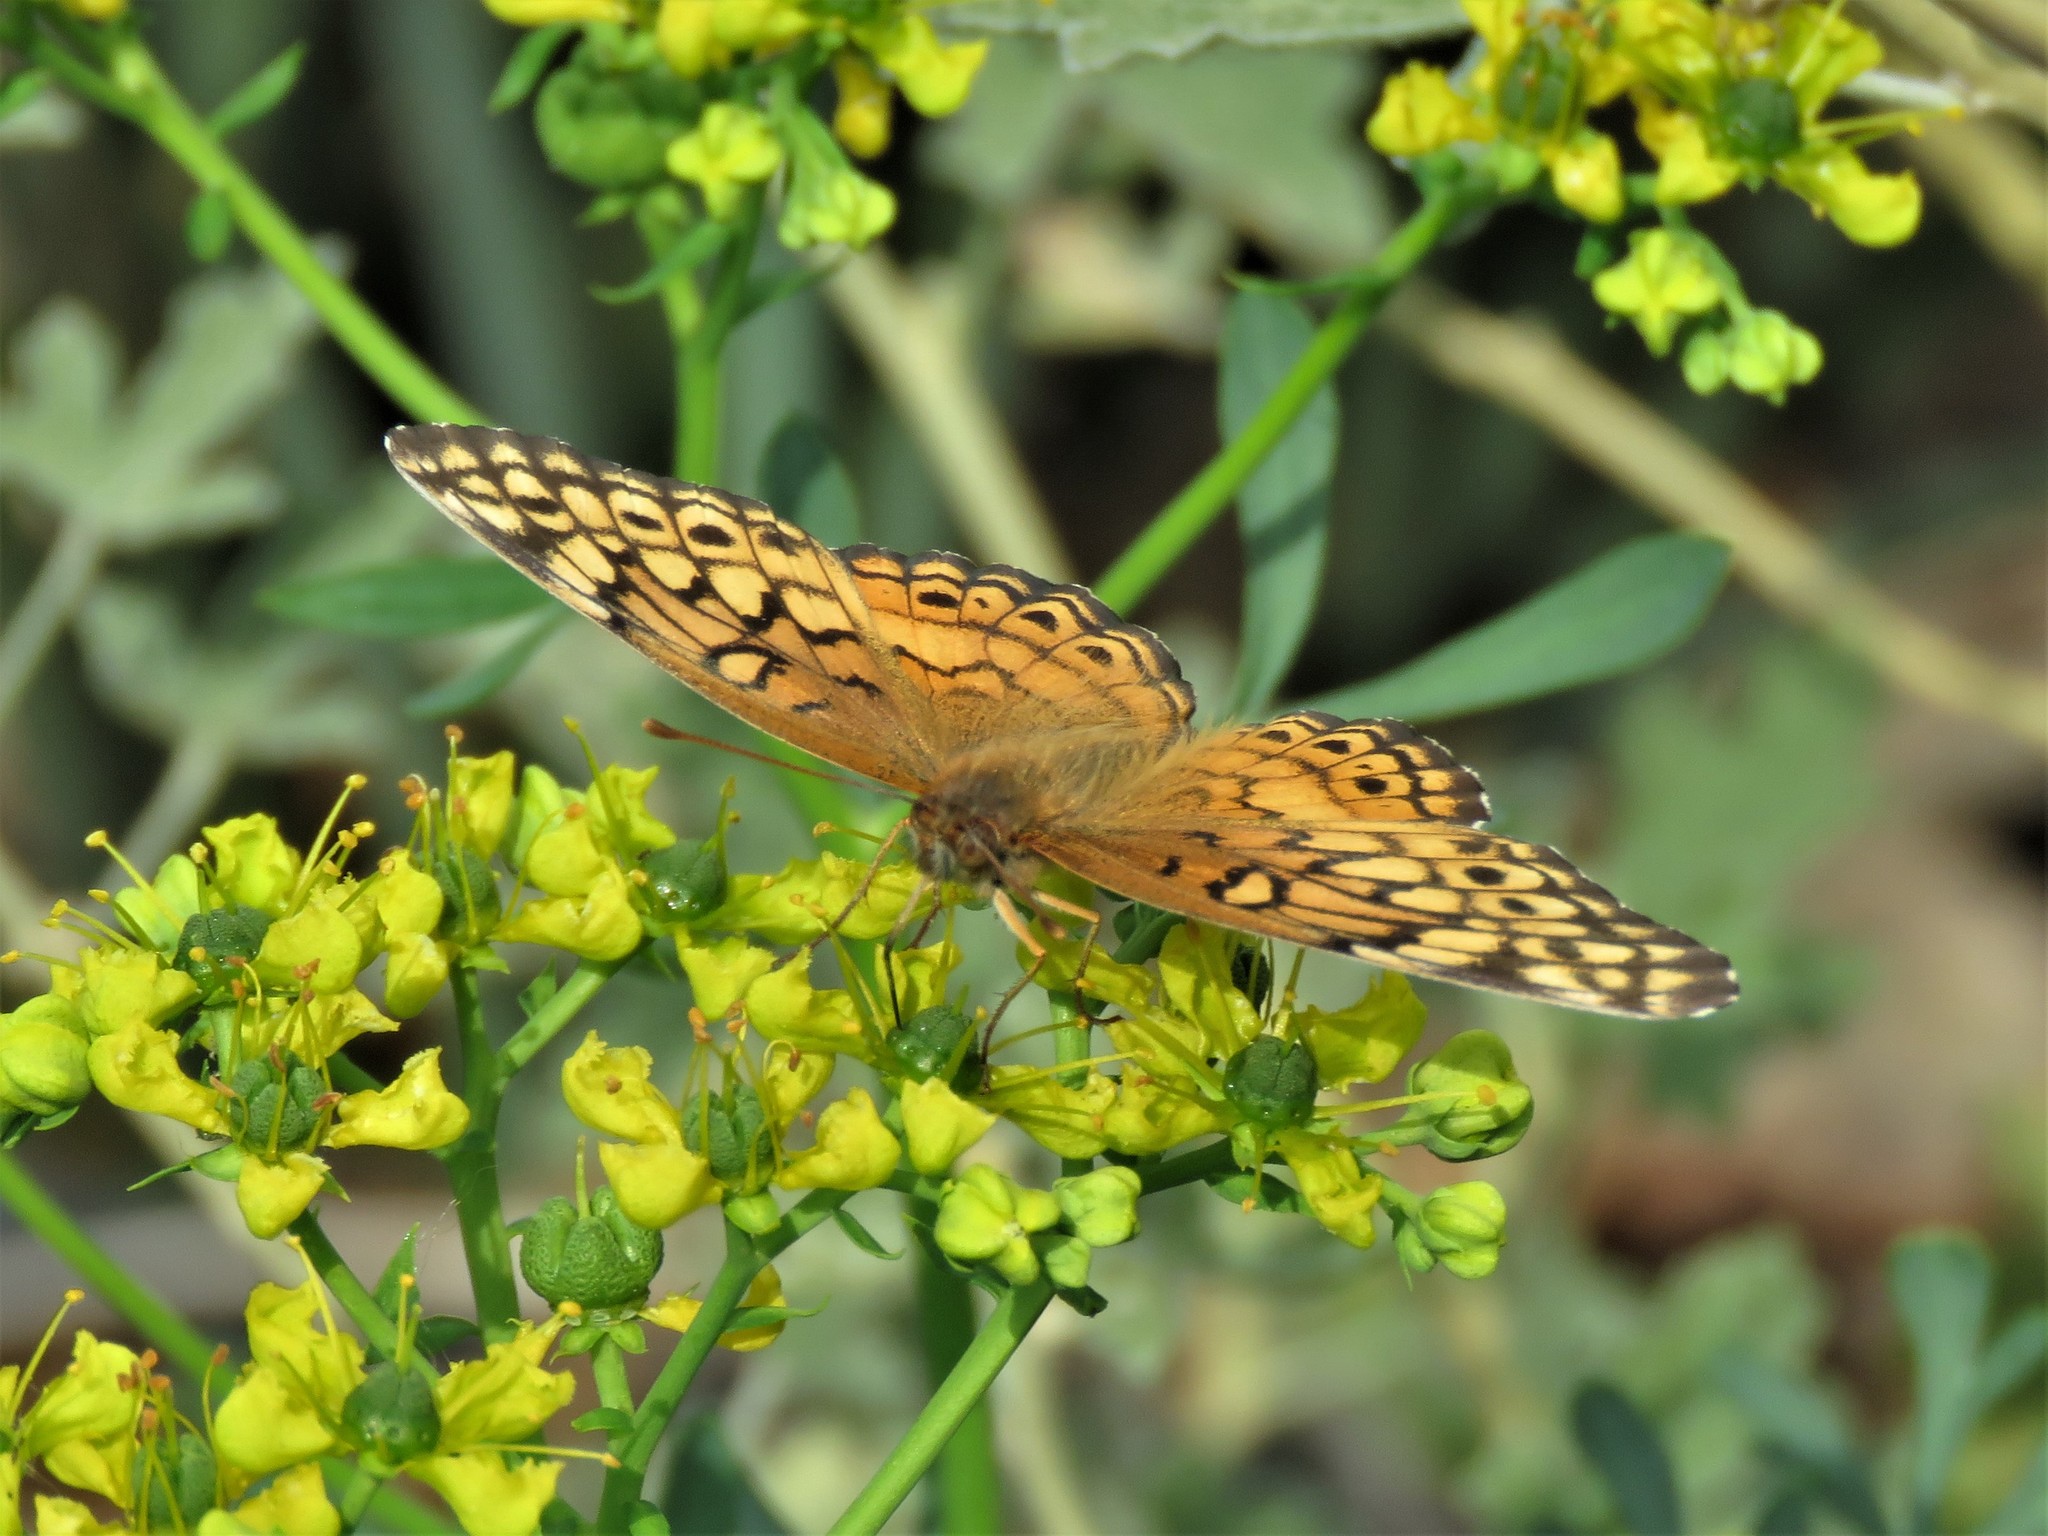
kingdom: Animalia
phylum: Arthropoda
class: Insecta
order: Lepidoptera
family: Nymphalidae
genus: Euptoieta
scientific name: Euptoieta claudia
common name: Variegated fritillary
